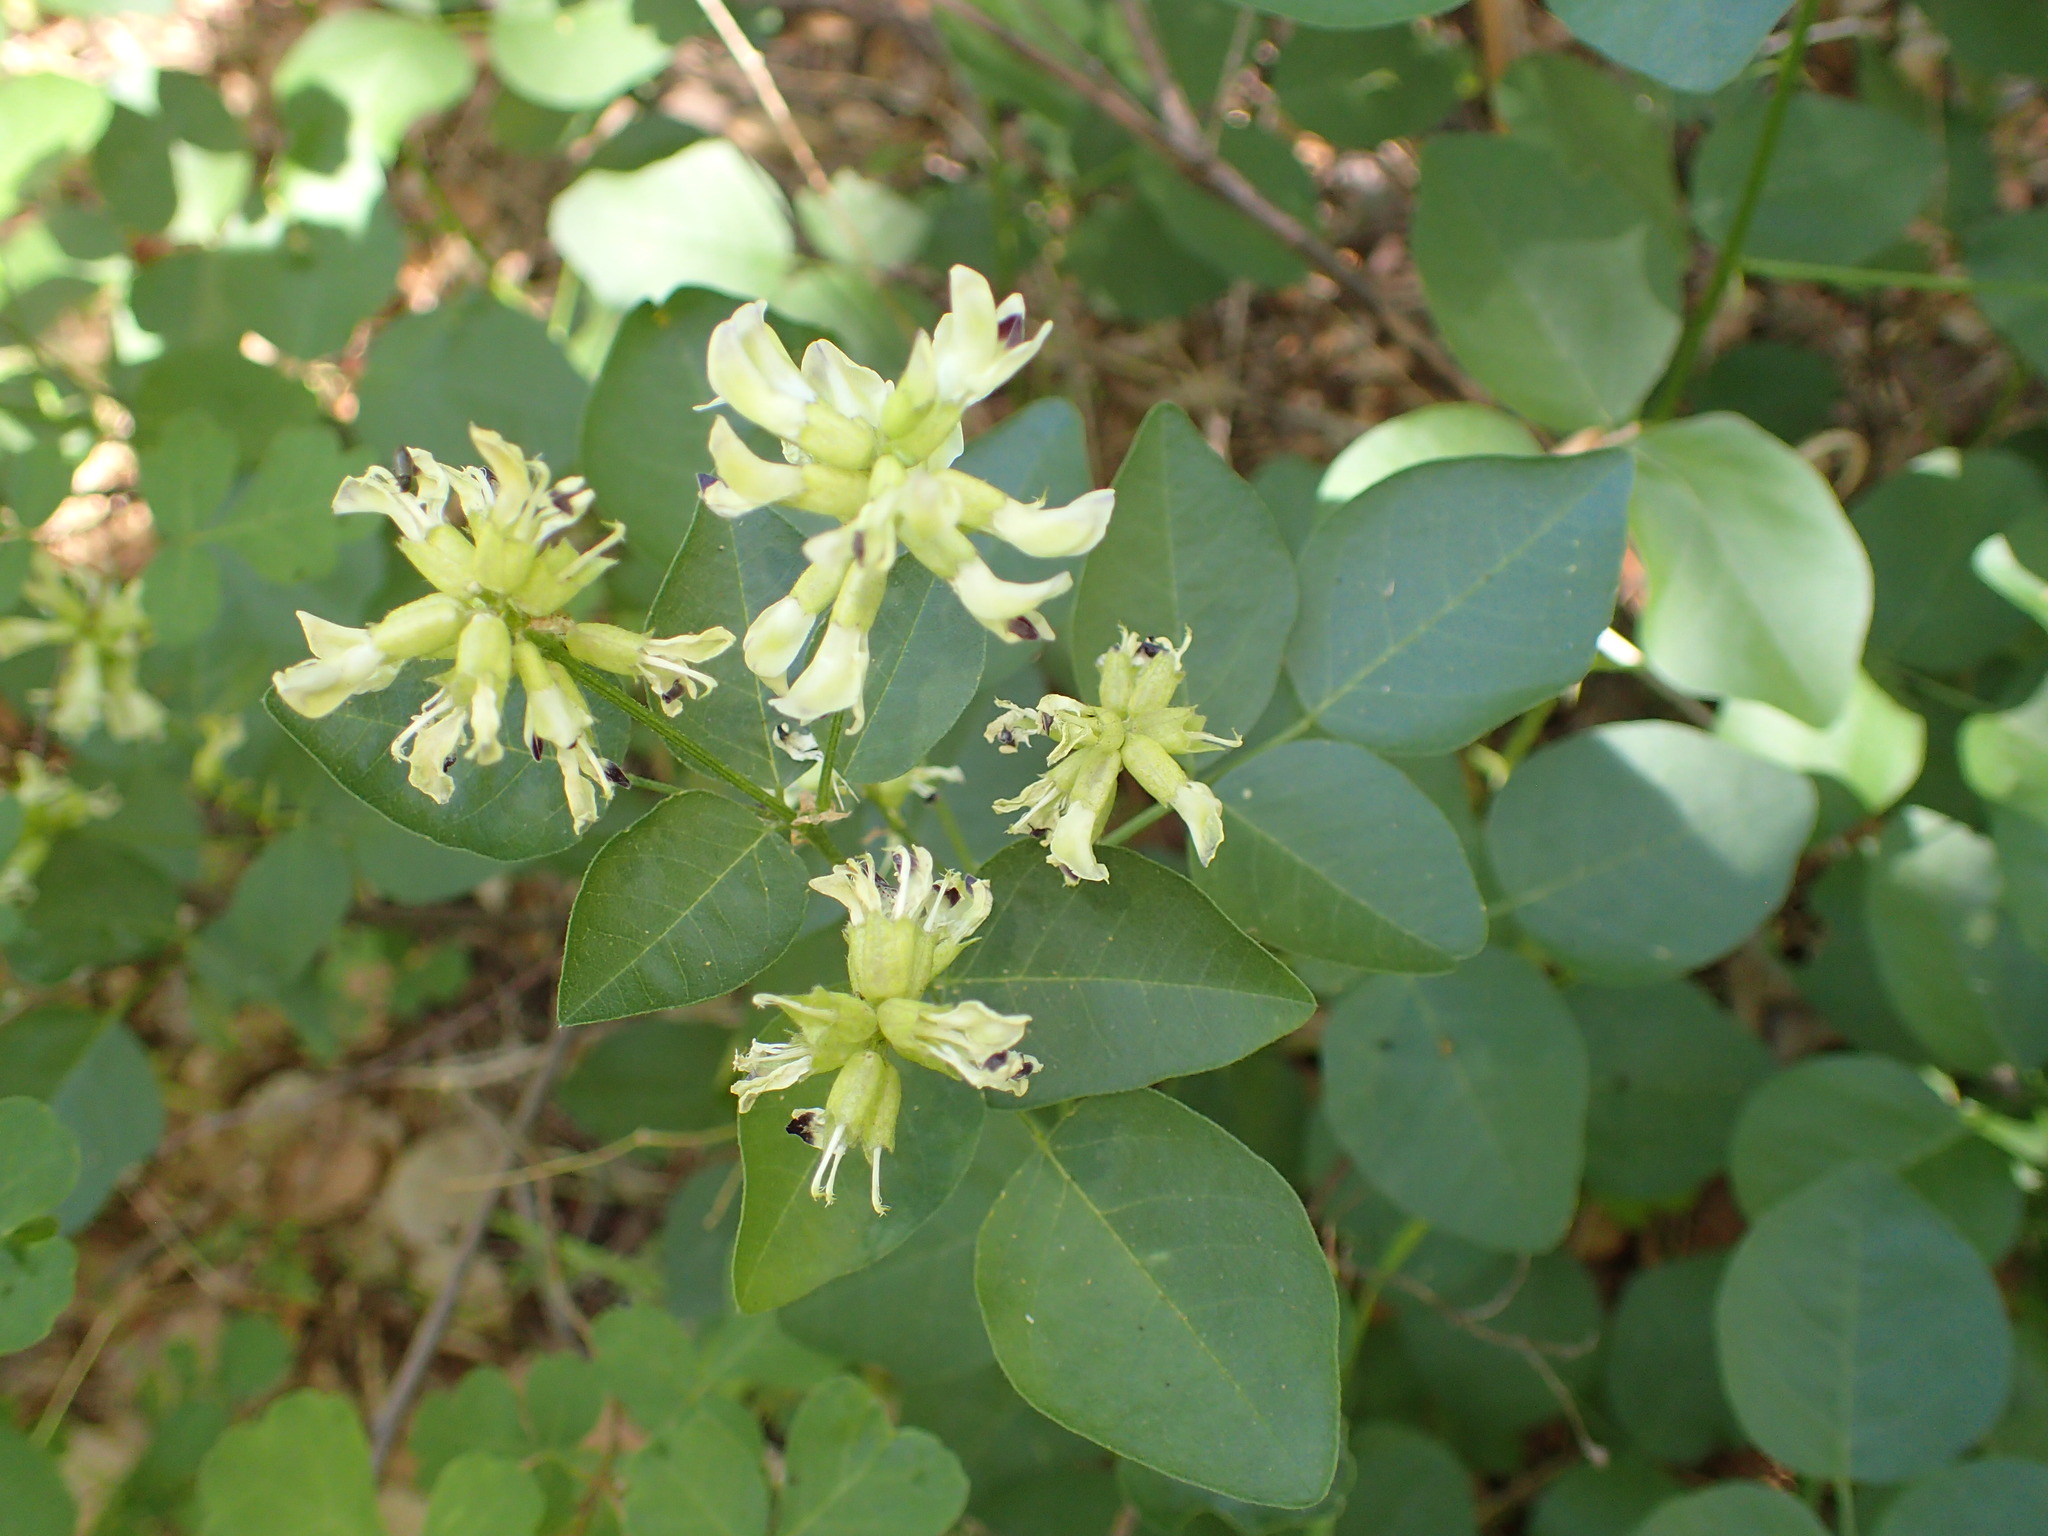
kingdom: Plantae
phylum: Tracheophyta
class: Magnoliopsida
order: Fabales
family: Fabaceae
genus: Rupertia
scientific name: Rupertia physodes
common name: California-tea
